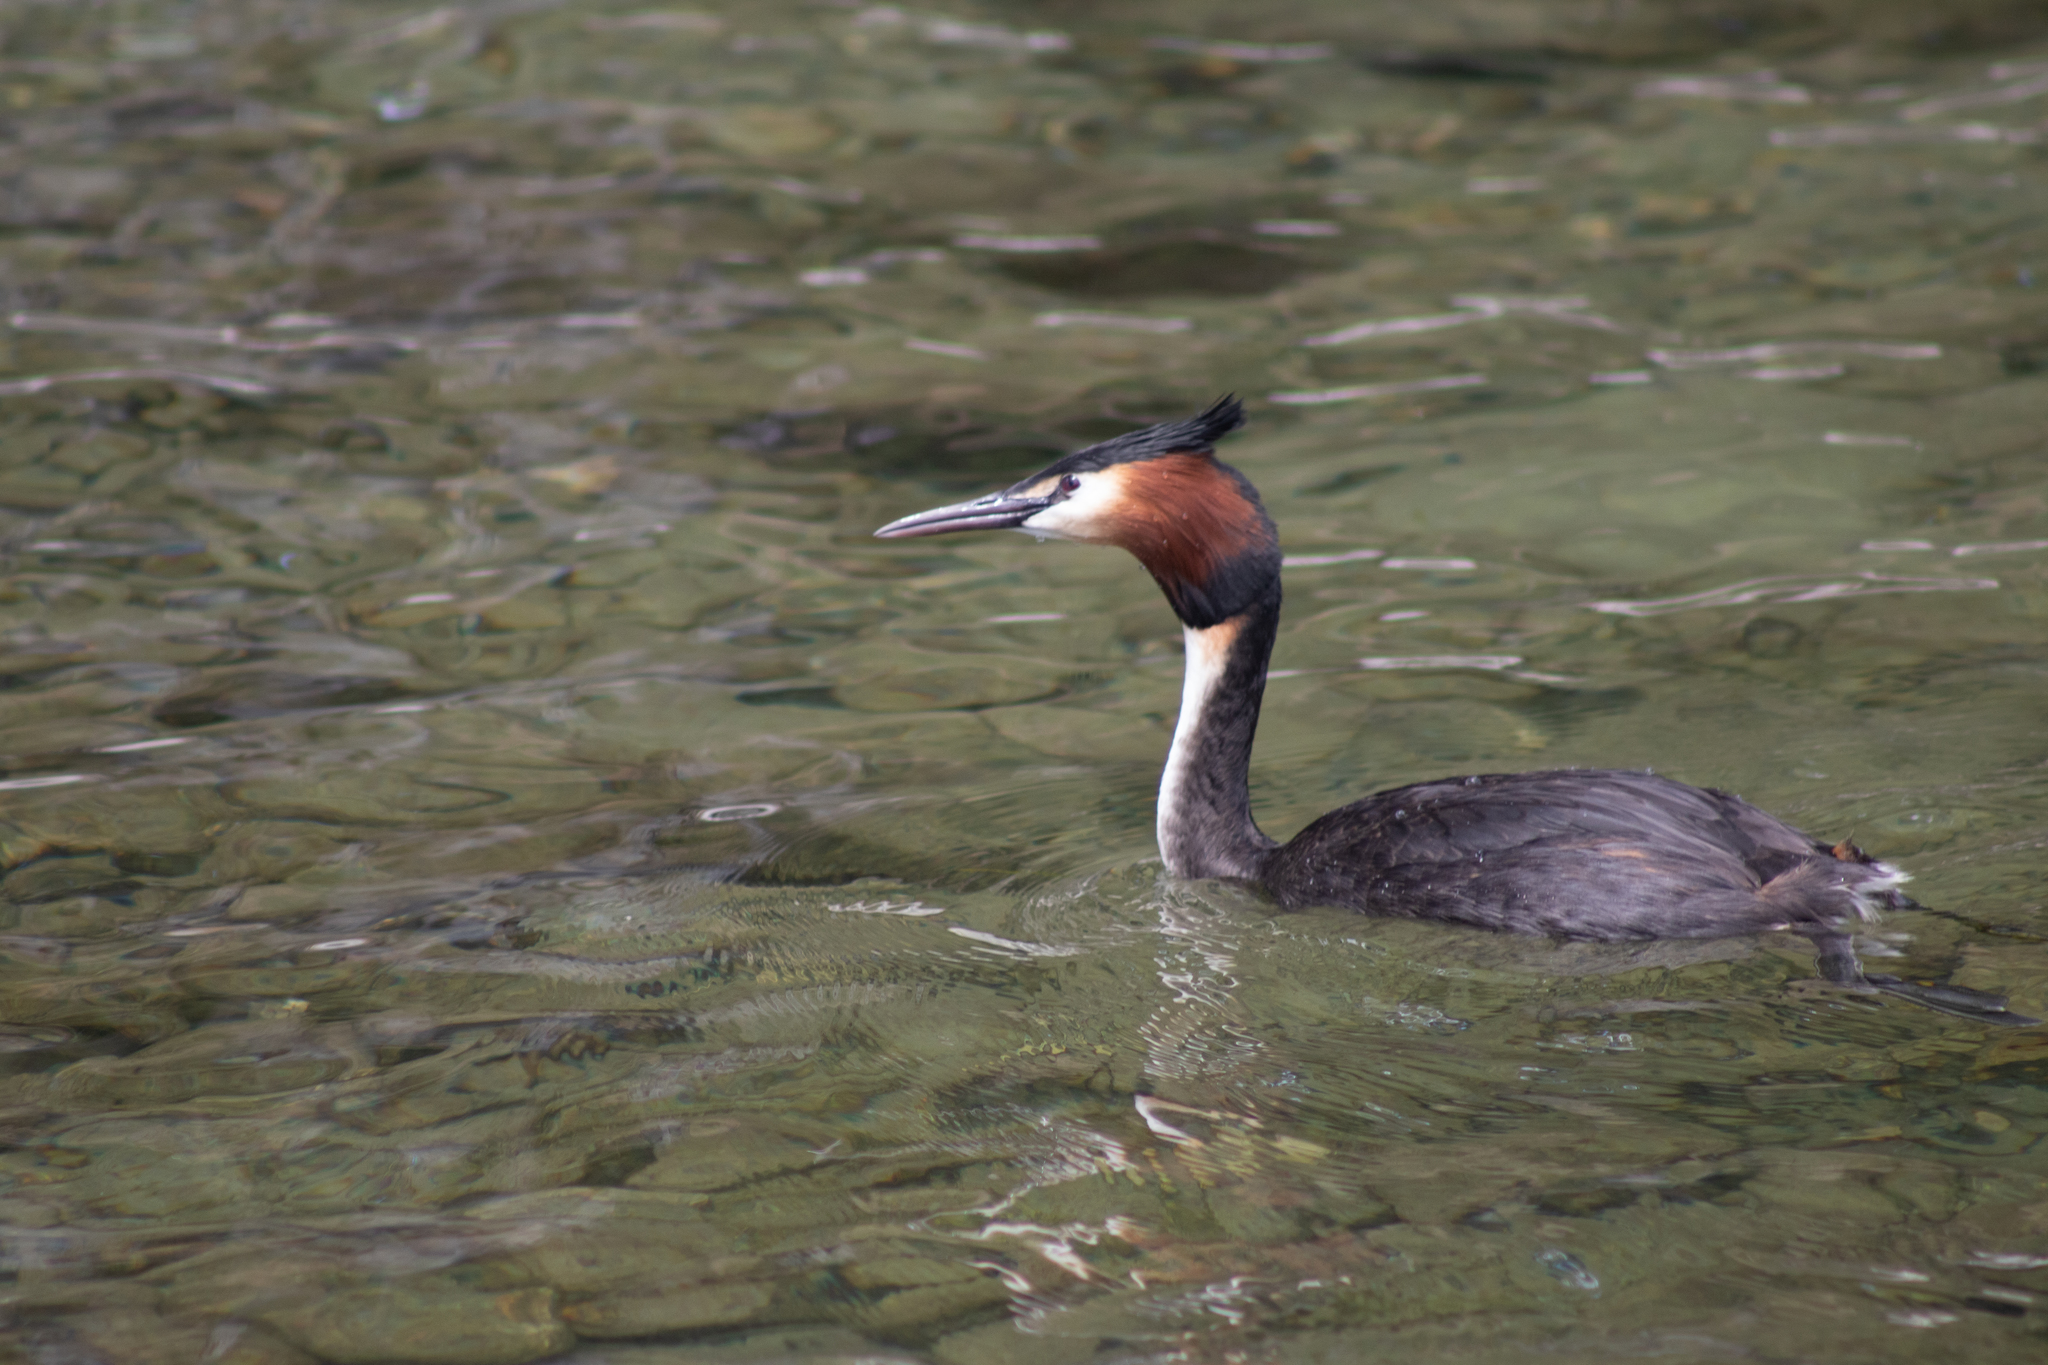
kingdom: Animalia
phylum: Chordata
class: Aves
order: Podicipediformes
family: Podicipedidae
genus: Podiceps
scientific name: Podiceps cristatus
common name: Great crested grebe
